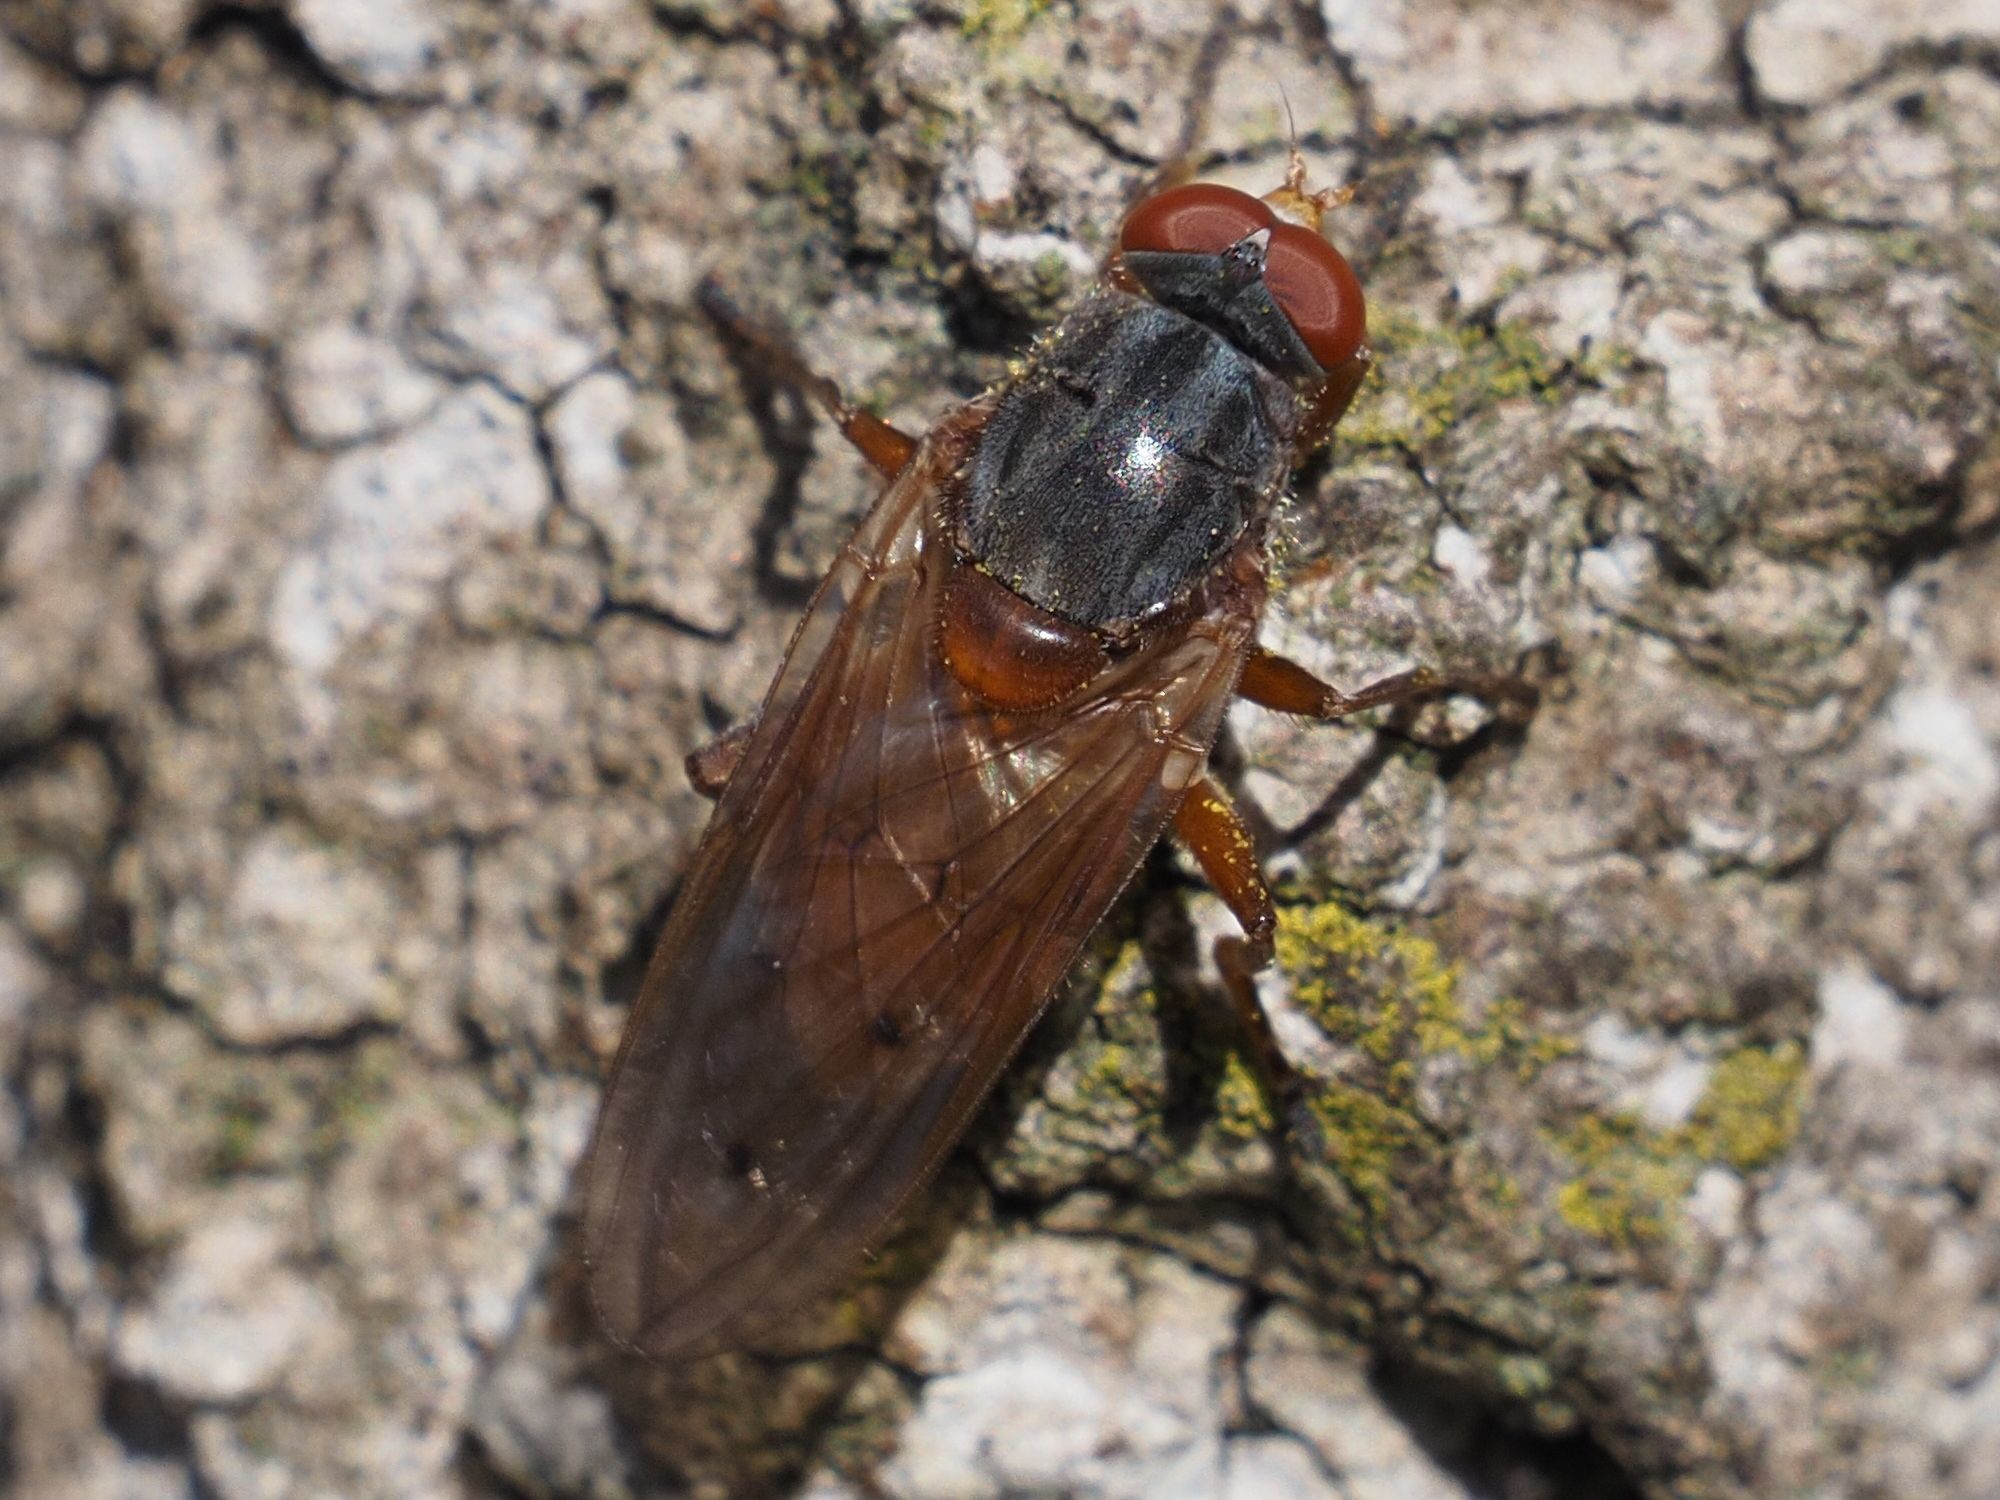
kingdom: Animalia
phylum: Arthropoda
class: Insecta
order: Diptera
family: Syrphidae
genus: Brachyopa
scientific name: Brachyopa maculipennis
